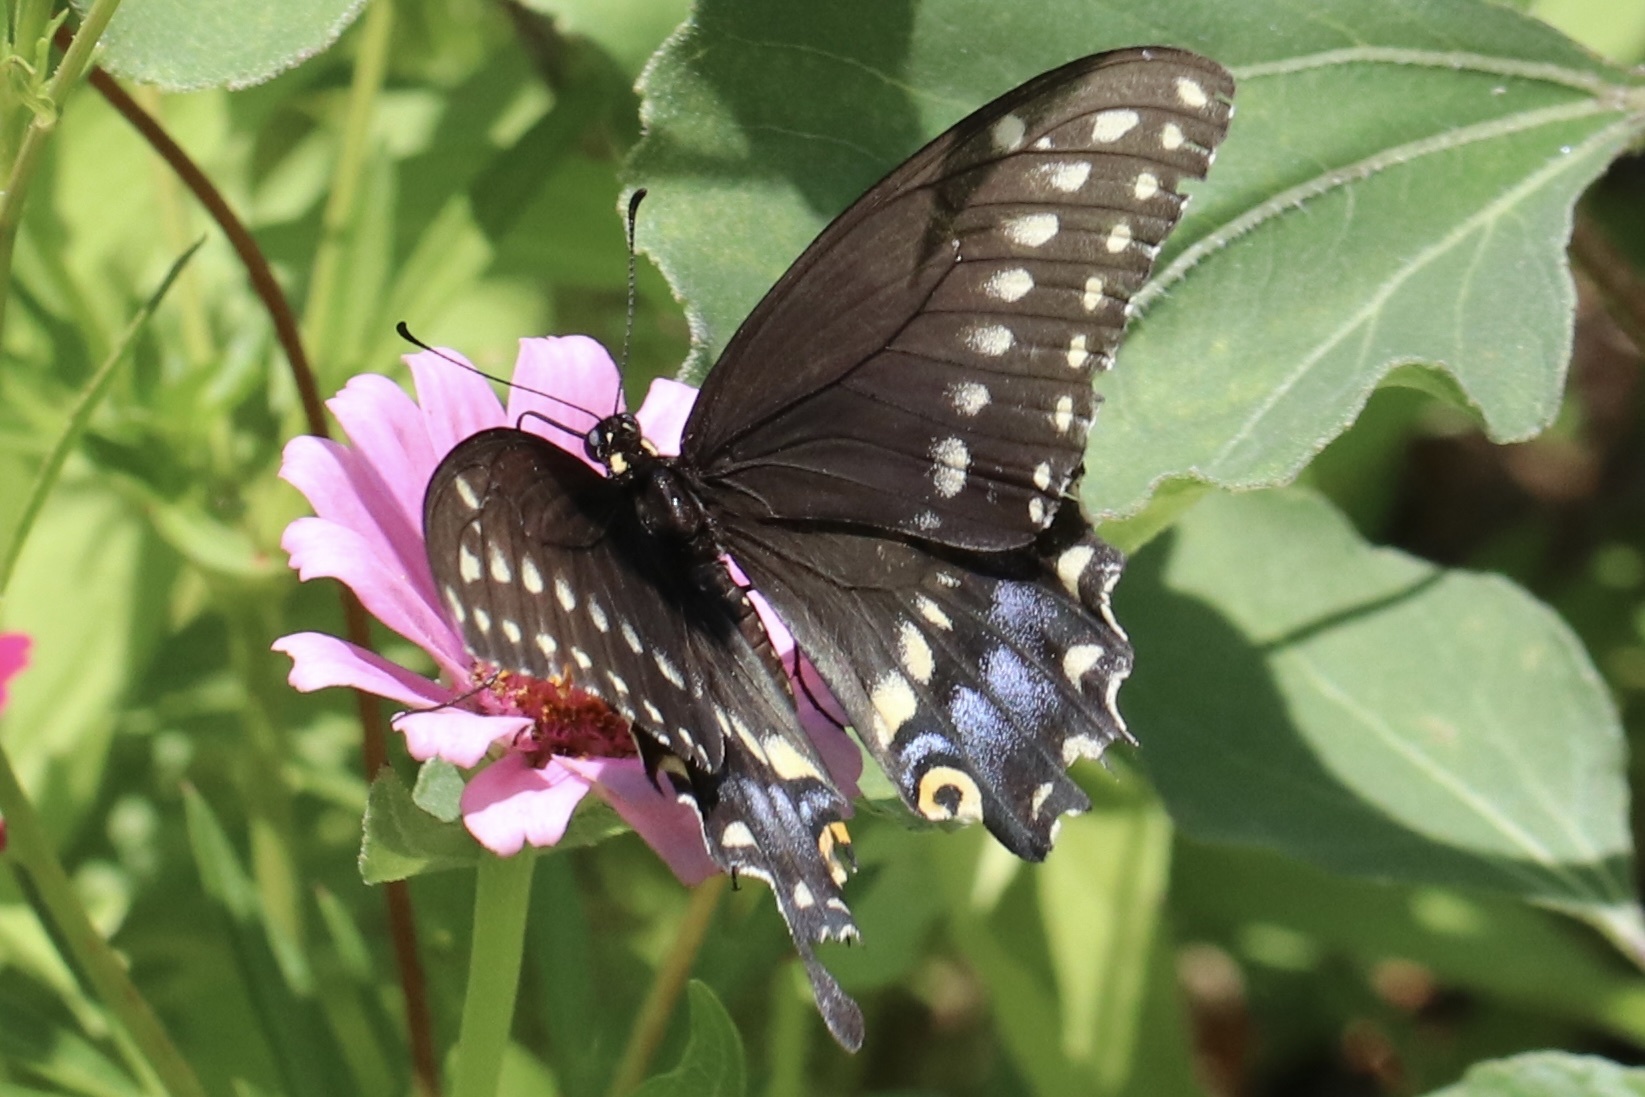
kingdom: Animalia
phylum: Arthropoda
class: Insecta
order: Lepidoptera
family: Papilionidae
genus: Papilio
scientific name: Papilio polyxenes
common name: Black swallowtail
